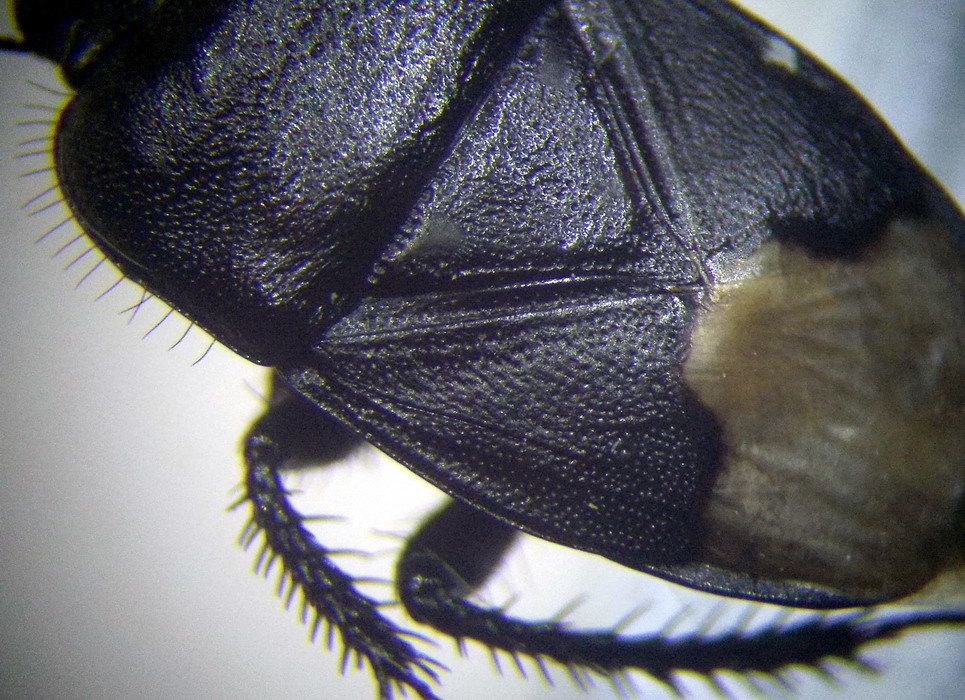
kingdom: Animalia
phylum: Arthropoda
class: Insecta
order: Hemiptera
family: Cydnidae
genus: Cydnus
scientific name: Cydnus aterrimus
